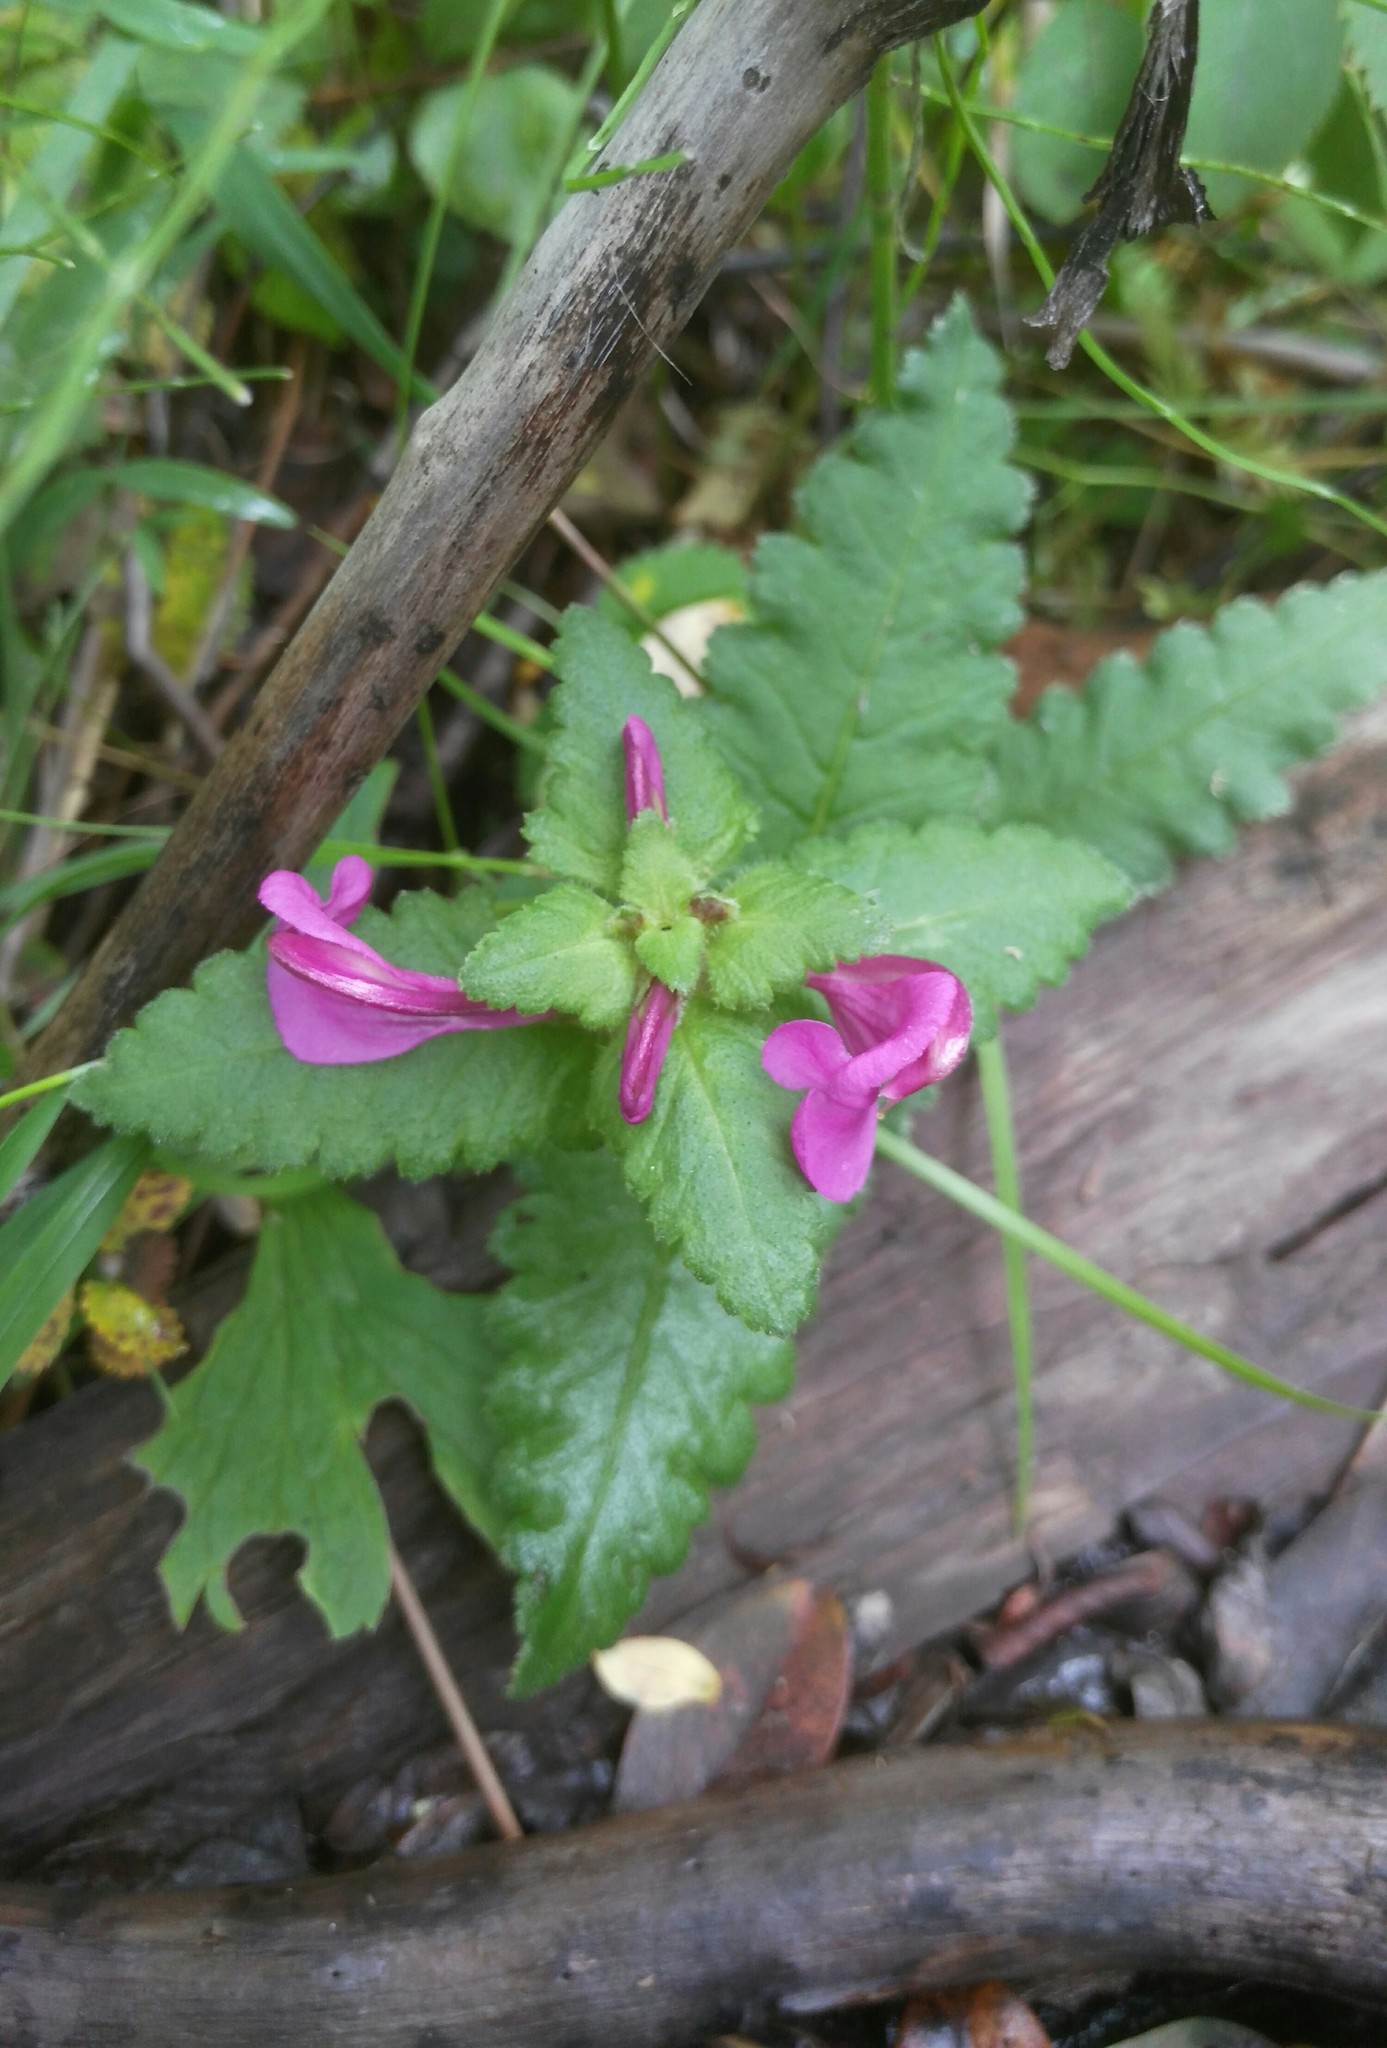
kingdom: Plantae
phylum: Tracheophyta
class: Magnoliopsida
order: Lamiales
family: Orobanchaceae
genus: Pedicularis
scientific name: Pedicularis resupinata
